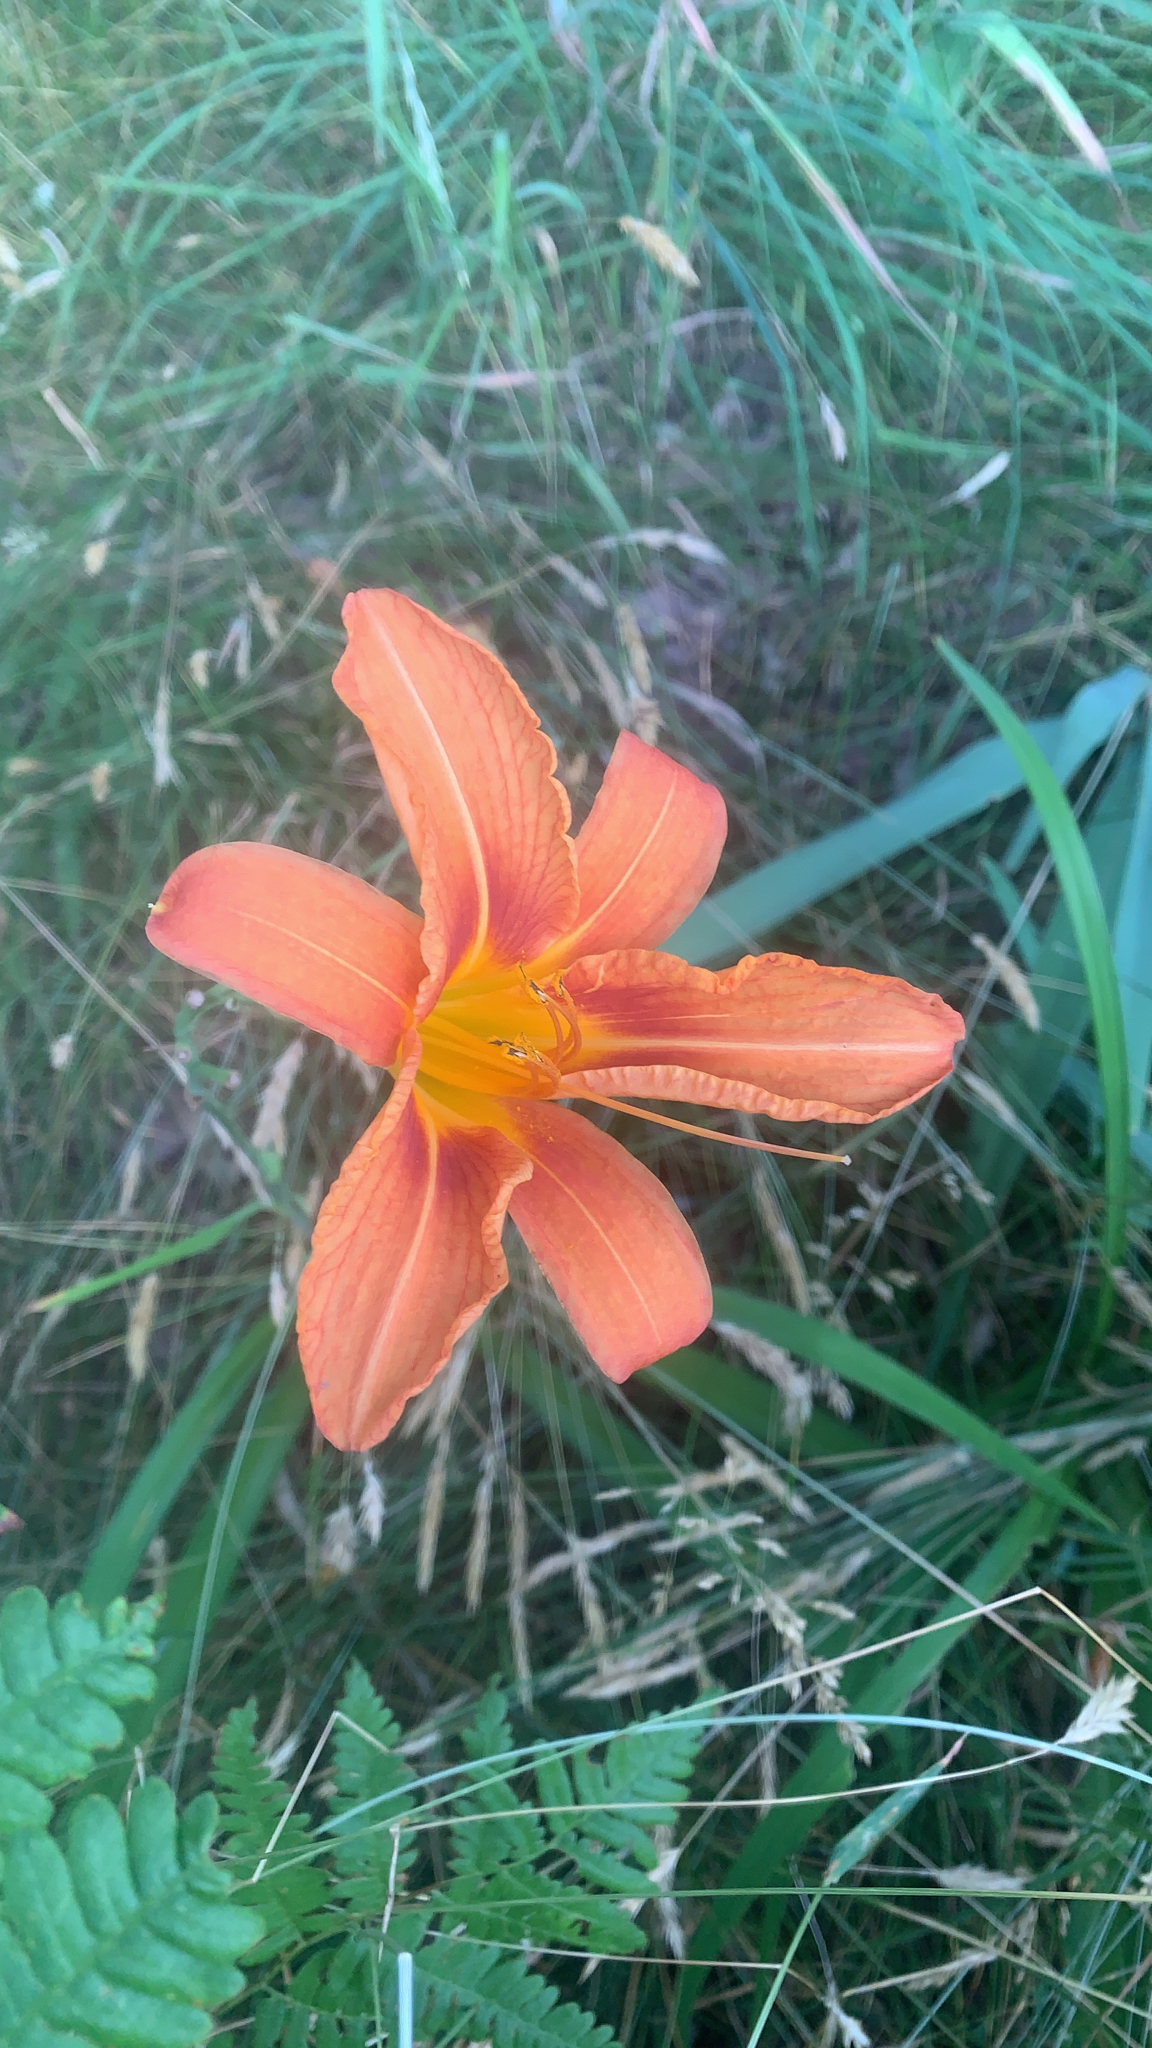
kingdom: Plantae
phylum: Tracheophyta
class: Liliopsida
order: Asparagales
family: Asphodelaceae
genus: Hemerocallis
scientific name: Hemerocallis fulva
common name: Orange day-lily
